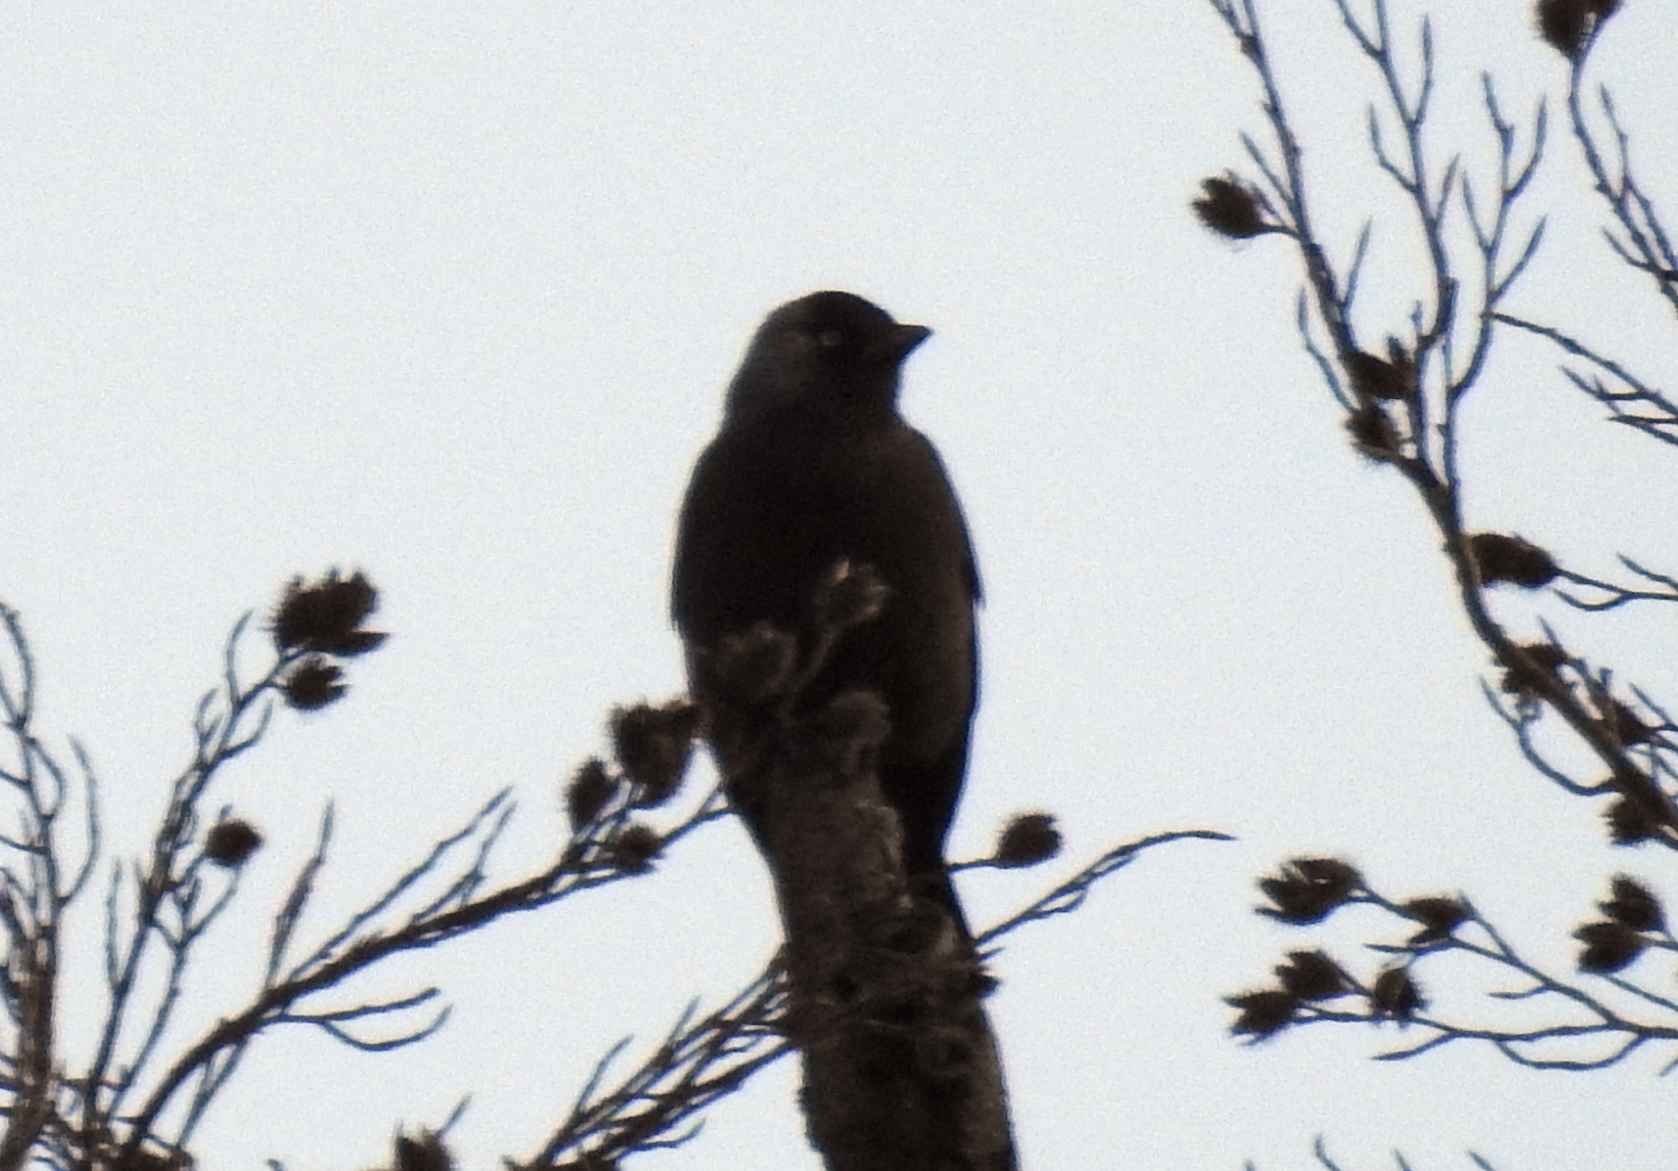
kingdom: Animalia
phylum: Chordata
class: Aves
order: Passeriformes
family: Corvidae
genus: Coloeus
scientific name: Coloeus monedula
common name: Western jackdaw
